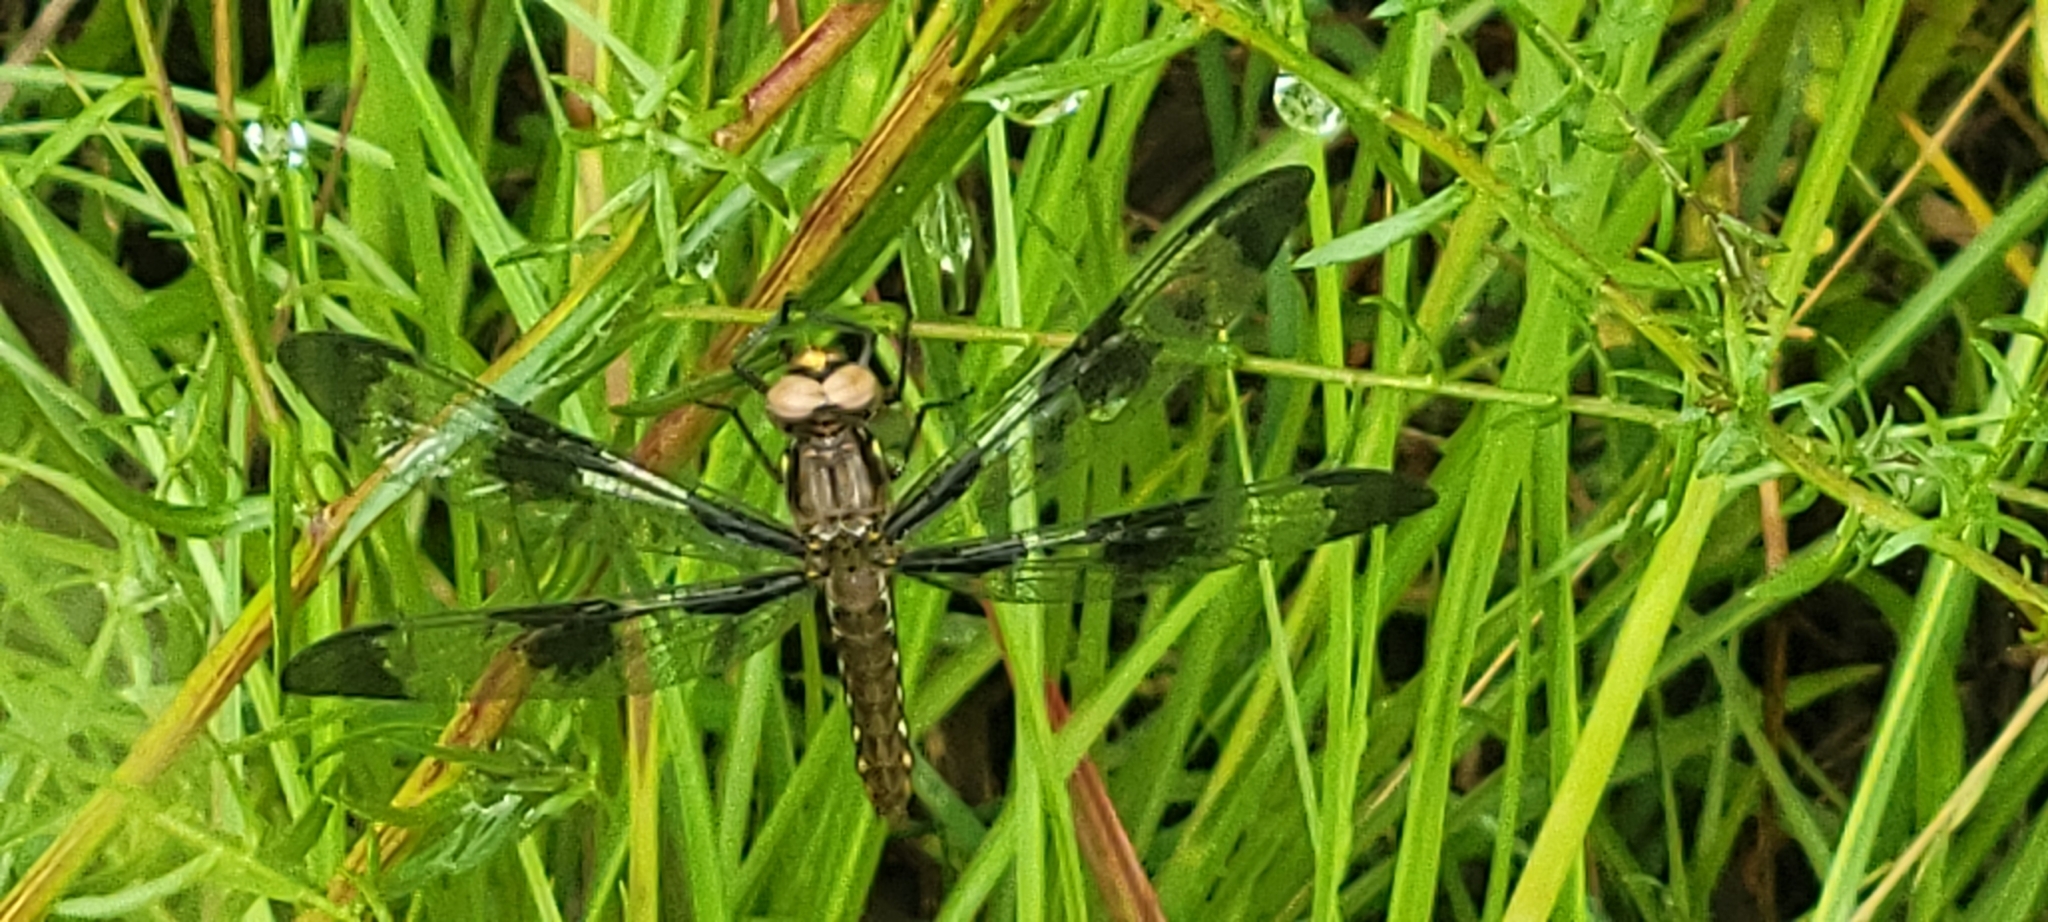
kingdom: Animalia
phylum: Arthropoda
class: Insecta
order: Odonata
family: Libellulidae
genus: Plathemis
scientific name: Plathemis lydia
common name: Common whitetail
